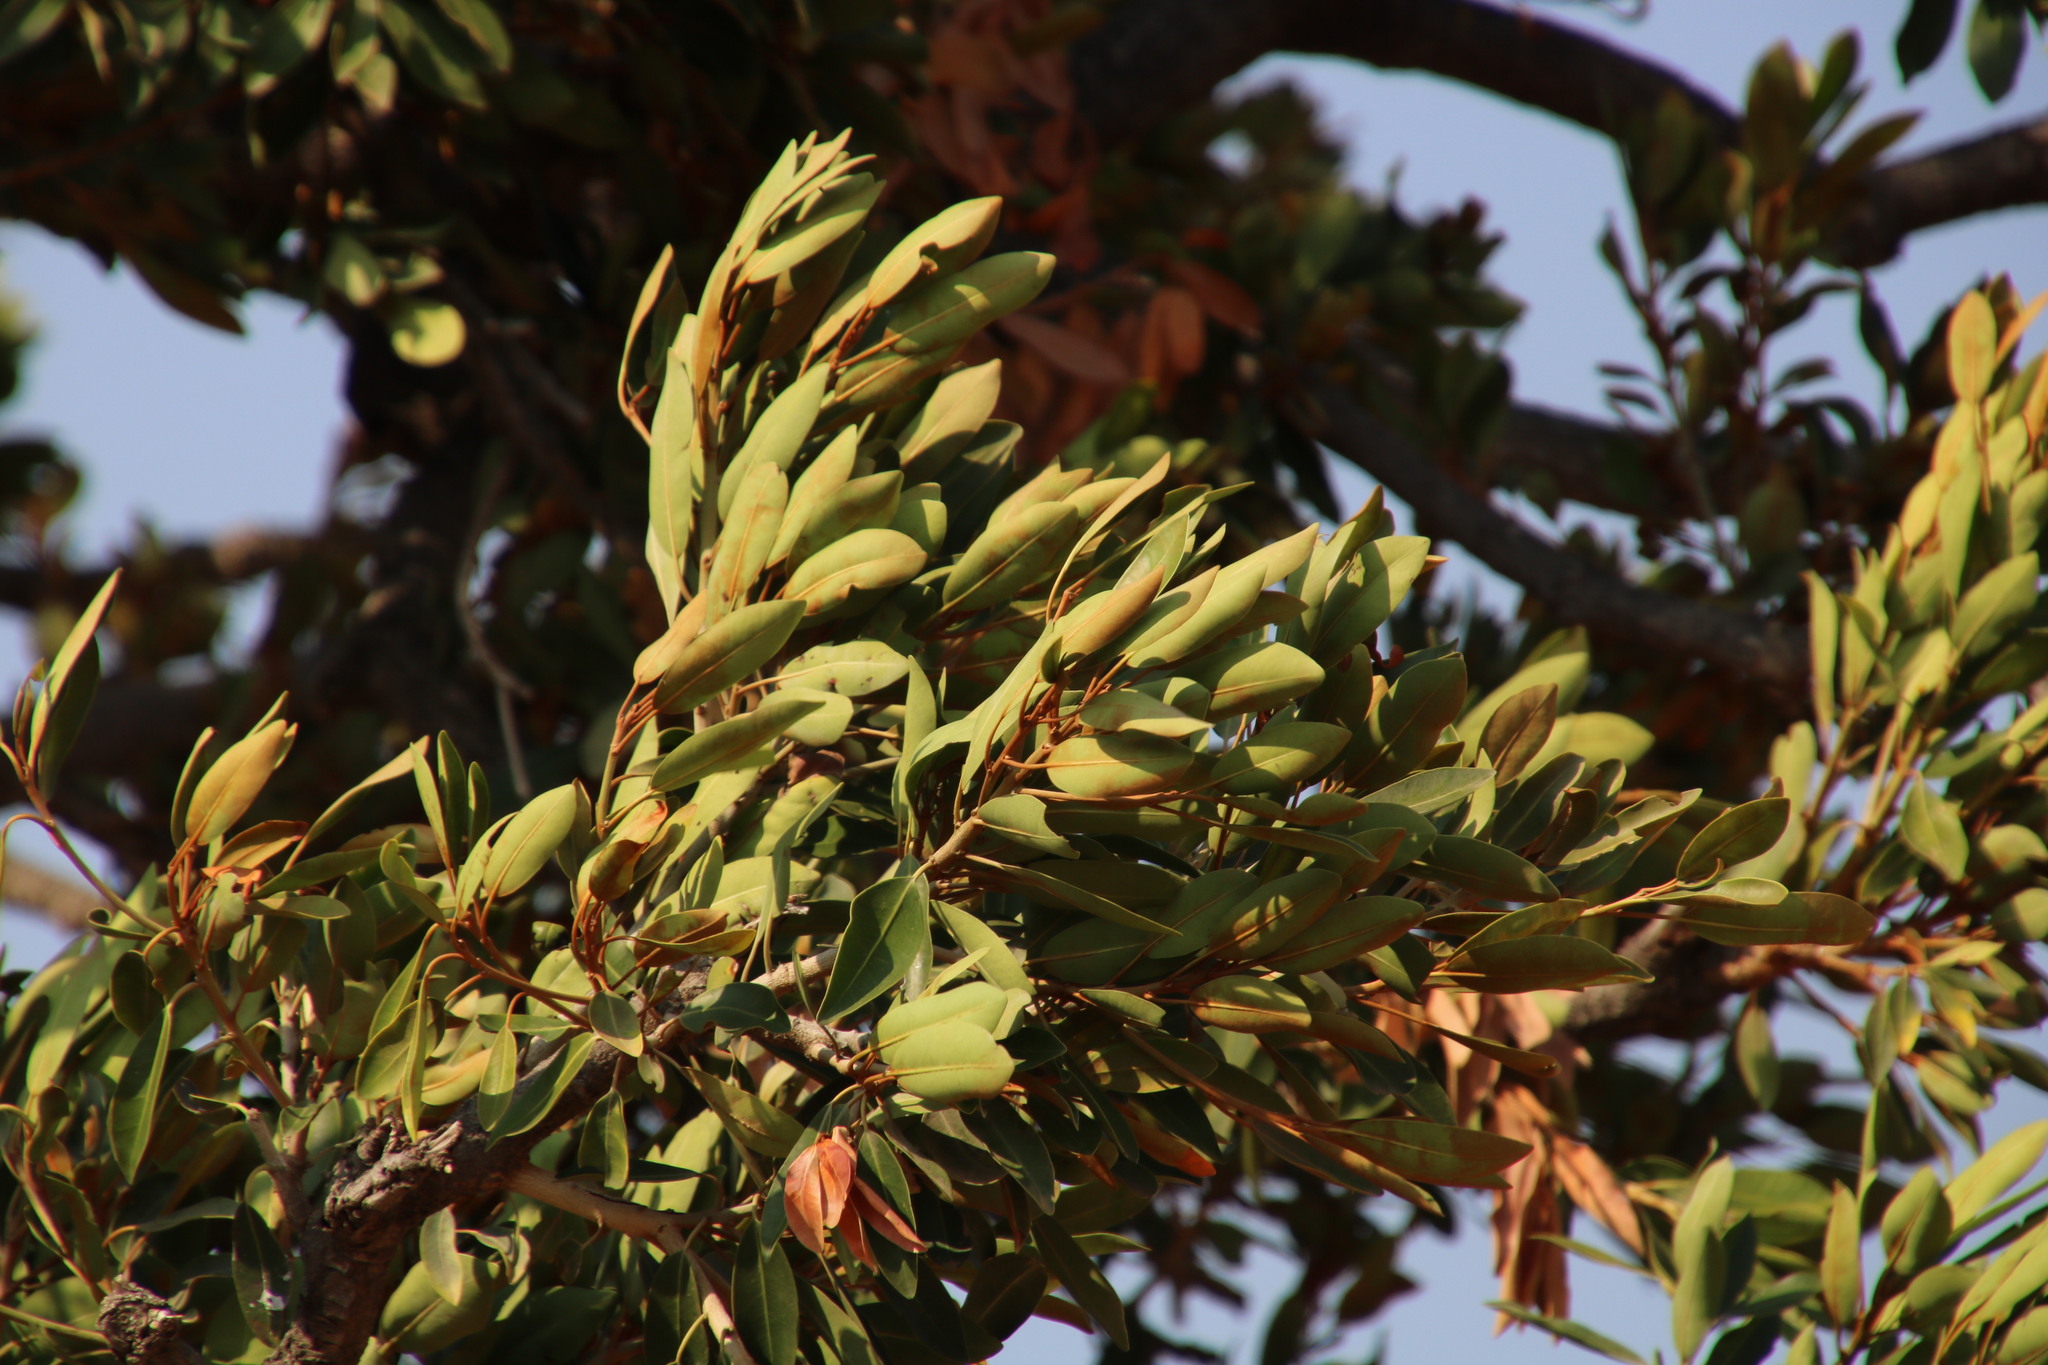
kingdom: Plantae
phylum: Tracheophyta
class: Magnoliopsida
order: Ericales
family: Sapotaceae
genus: Mimusops
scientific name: Mimusops zeyheri
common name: Transvaal red milkwood
